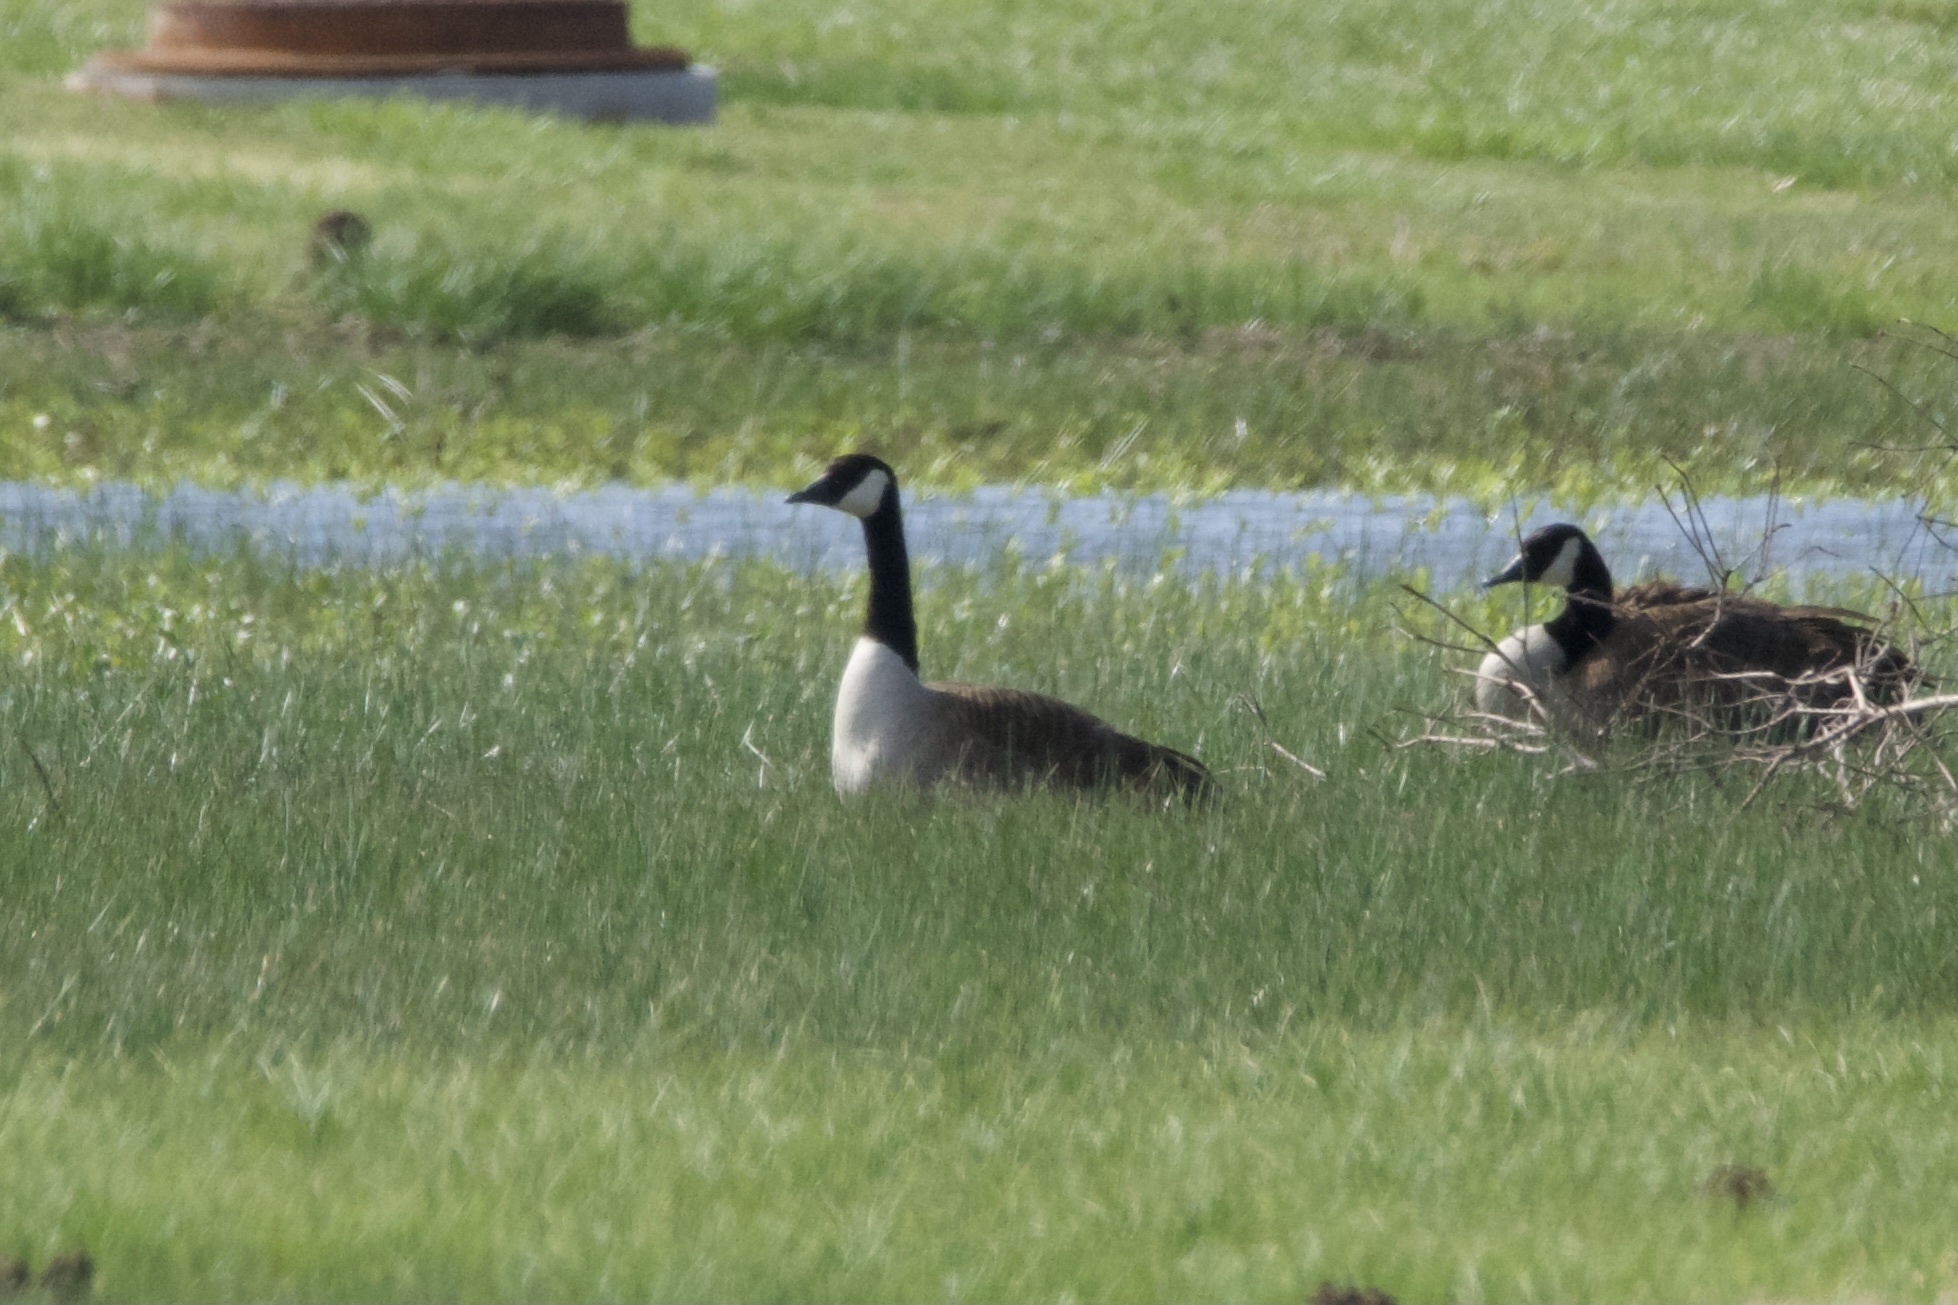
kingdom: Animalia
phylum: Chordata
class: Aves
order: Anseriformes
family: Anatidae
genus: Branta
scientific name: Branta canadensis
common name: Canada goose
